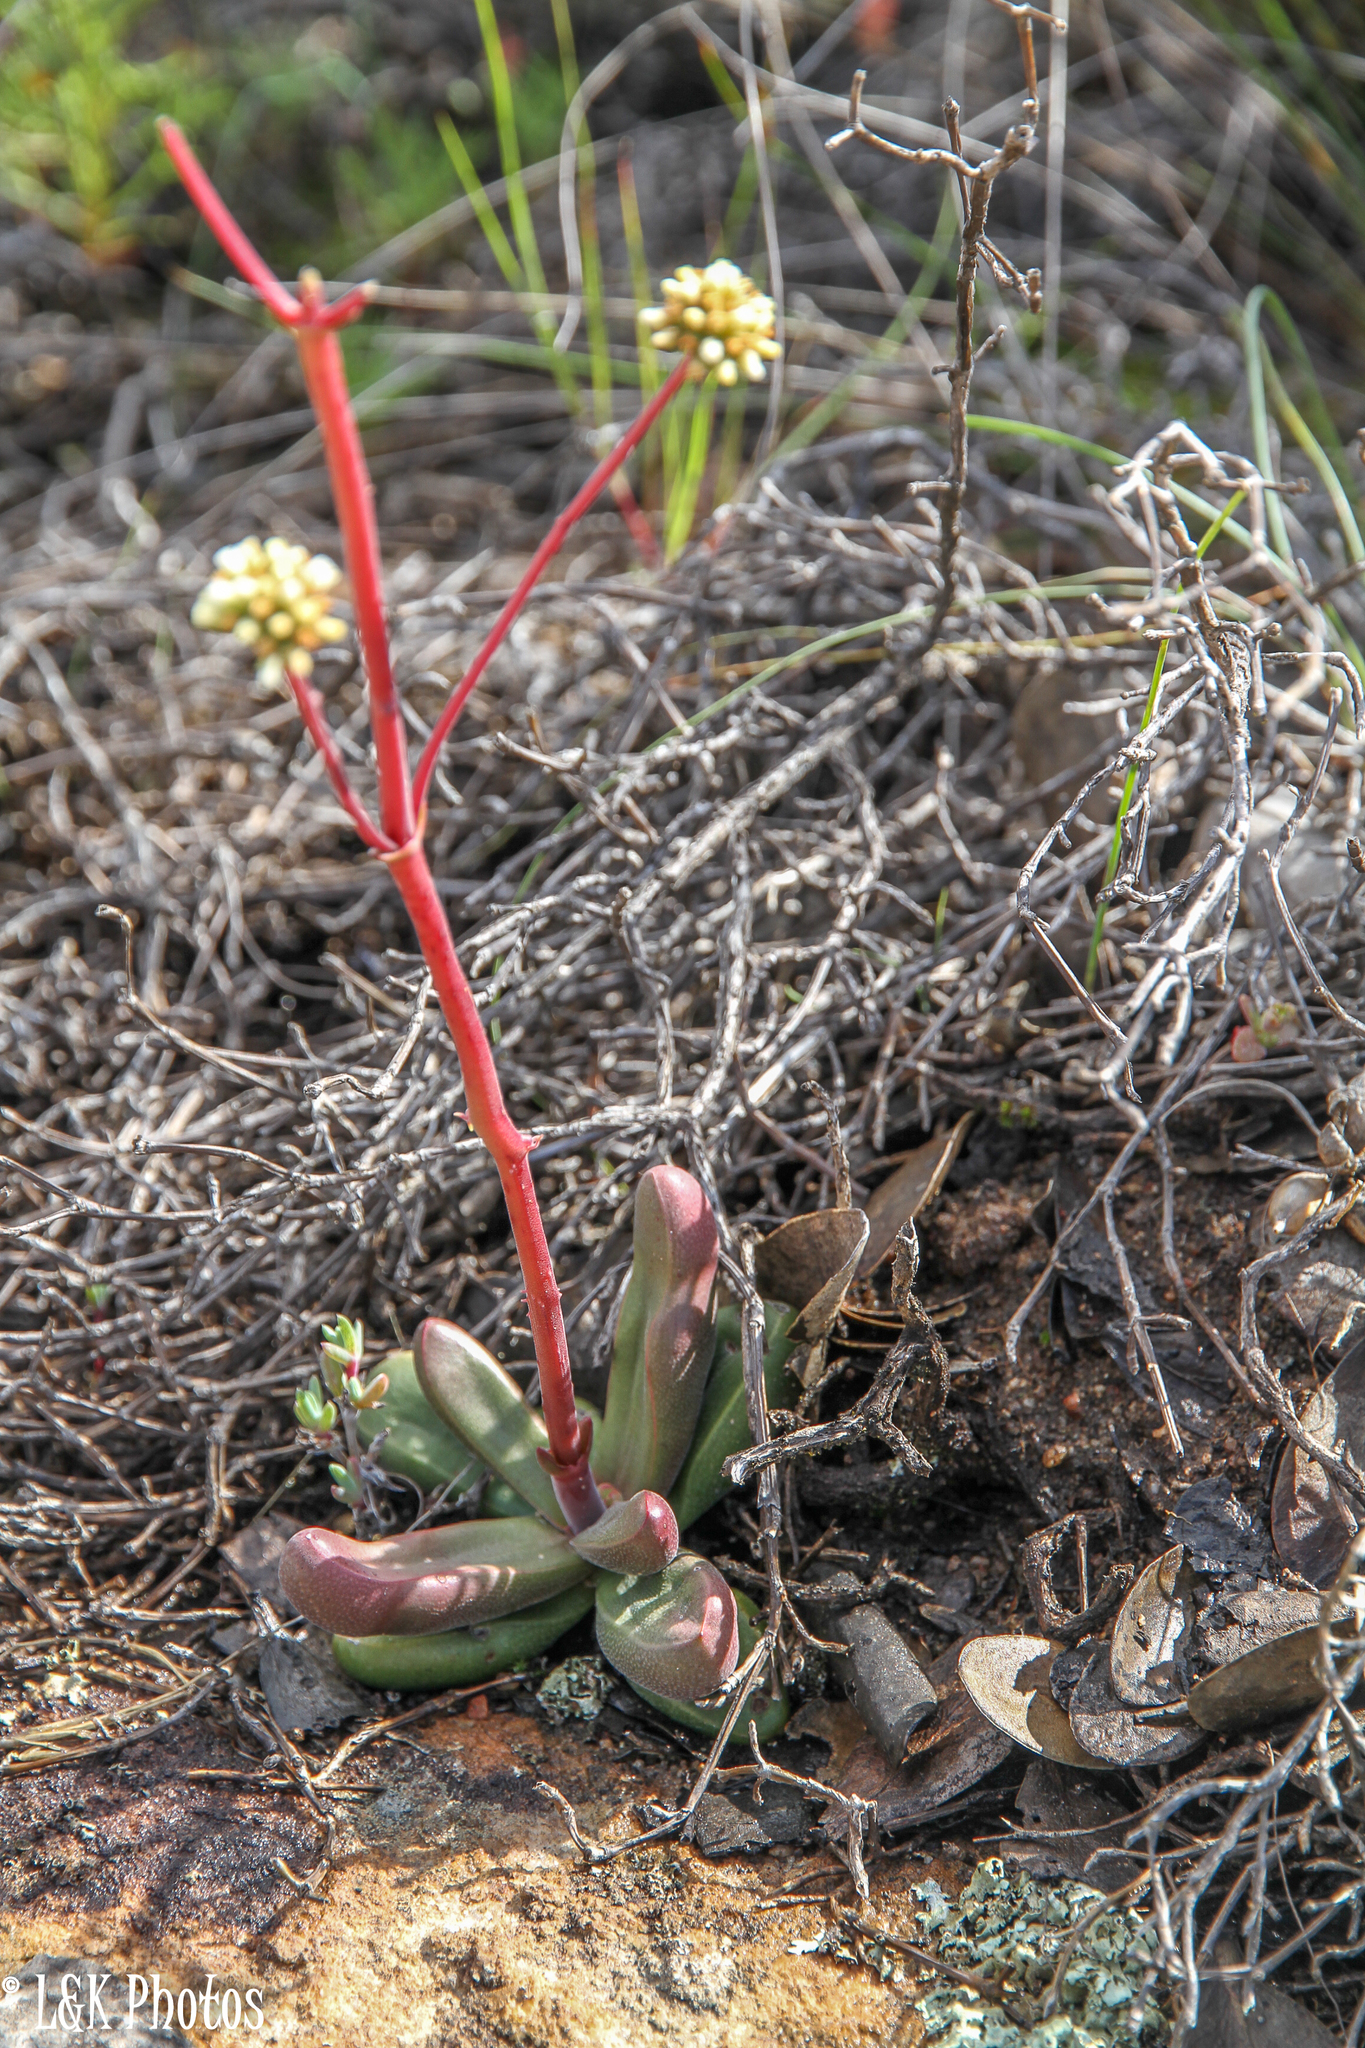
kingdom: Plantae
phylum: Tracheophyta
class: Magnoliopsida
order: Saxifragales
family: Crassulaceae
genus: Crassula
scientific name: Crassula clavata
